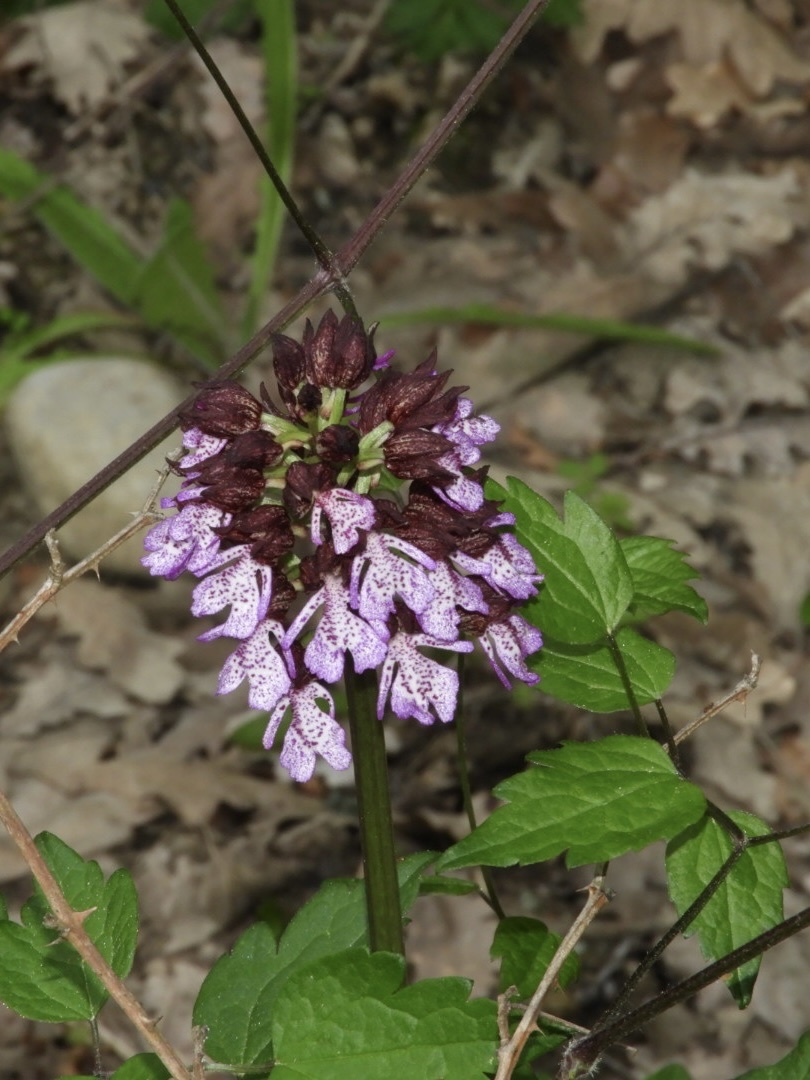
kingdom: Plantae
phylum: Tracheophyta
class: Liliopsida
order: Asparagales
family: Orchidaceae
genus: Orchis
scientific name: Orchis purpurea
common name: Lady orchid
